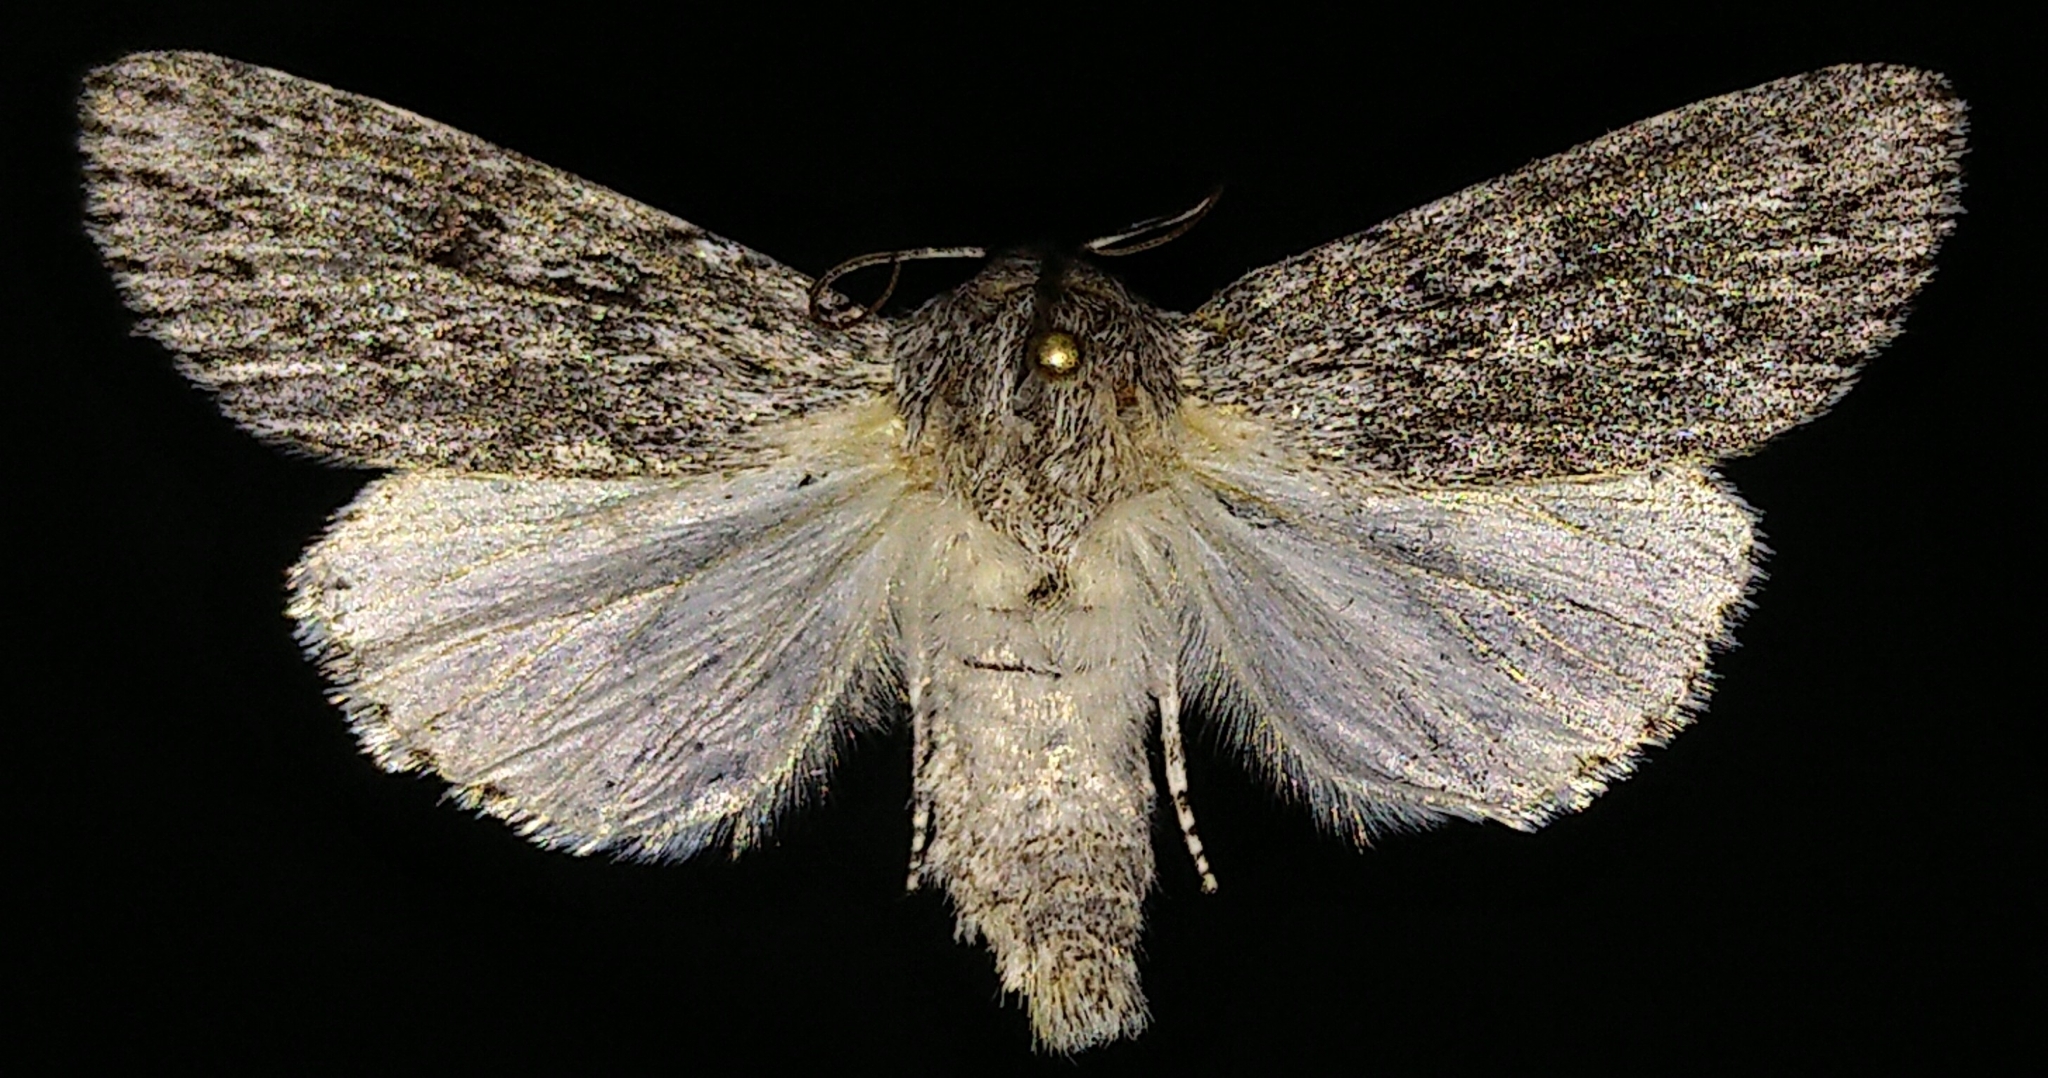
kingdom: Animalia
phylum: Arthropoda
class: Insecta
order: Lepidoptera
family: Noctuidae
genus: Acronicta
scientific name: Acronicta oblinita
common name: Smeared dagger
